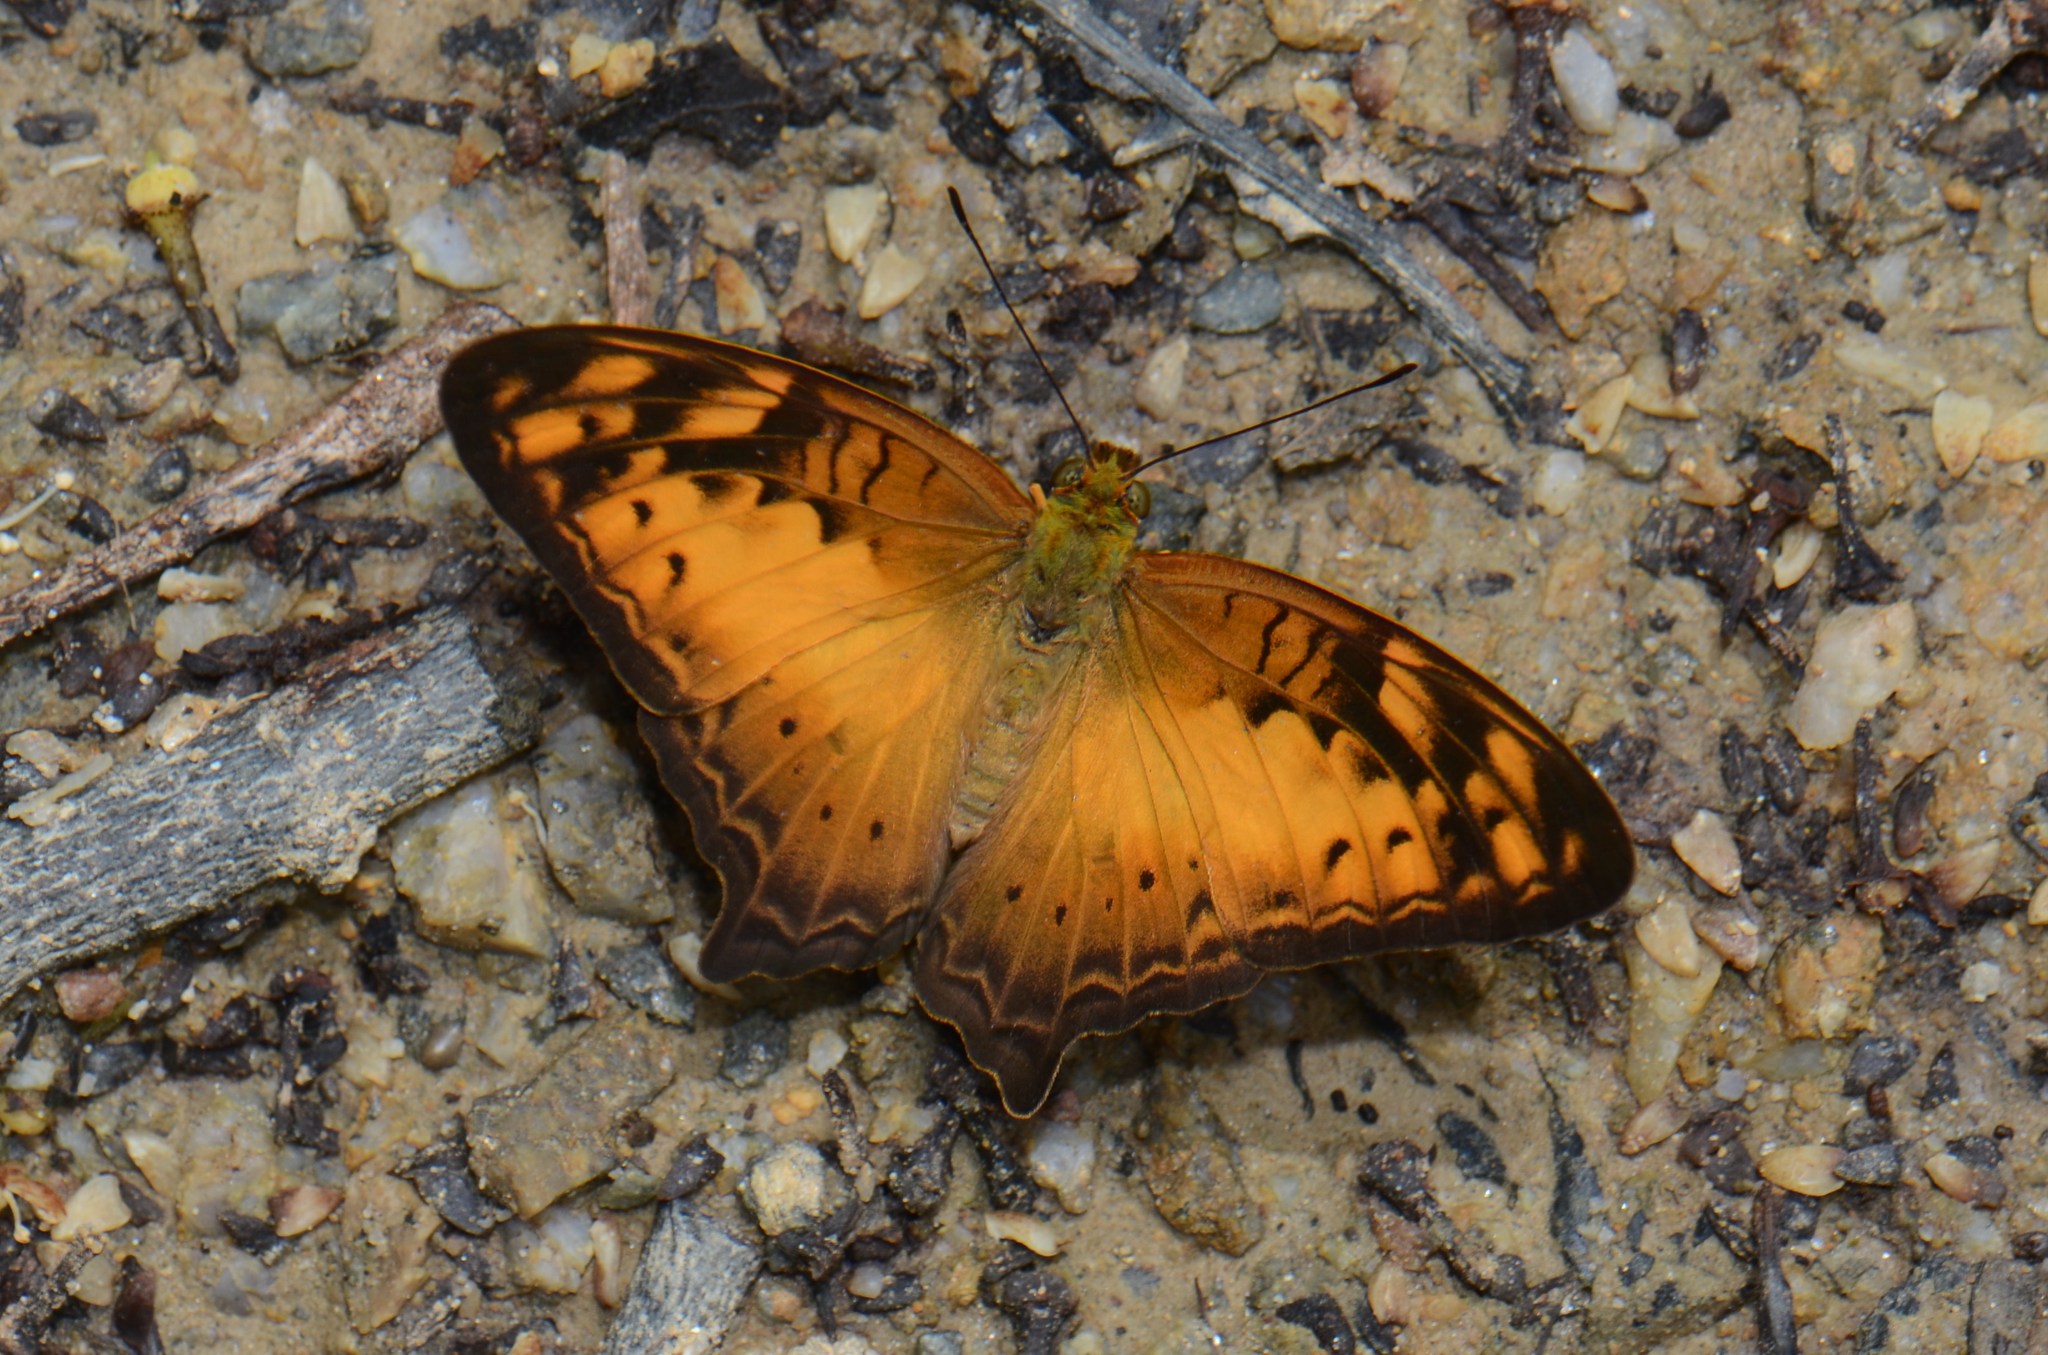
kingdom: Animalia
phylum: Arthropoda
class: Insecta
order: Lepidoptera
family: Nymphalidae
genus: Vagrans
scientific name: Vagrans egista
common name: Tailed rustic
